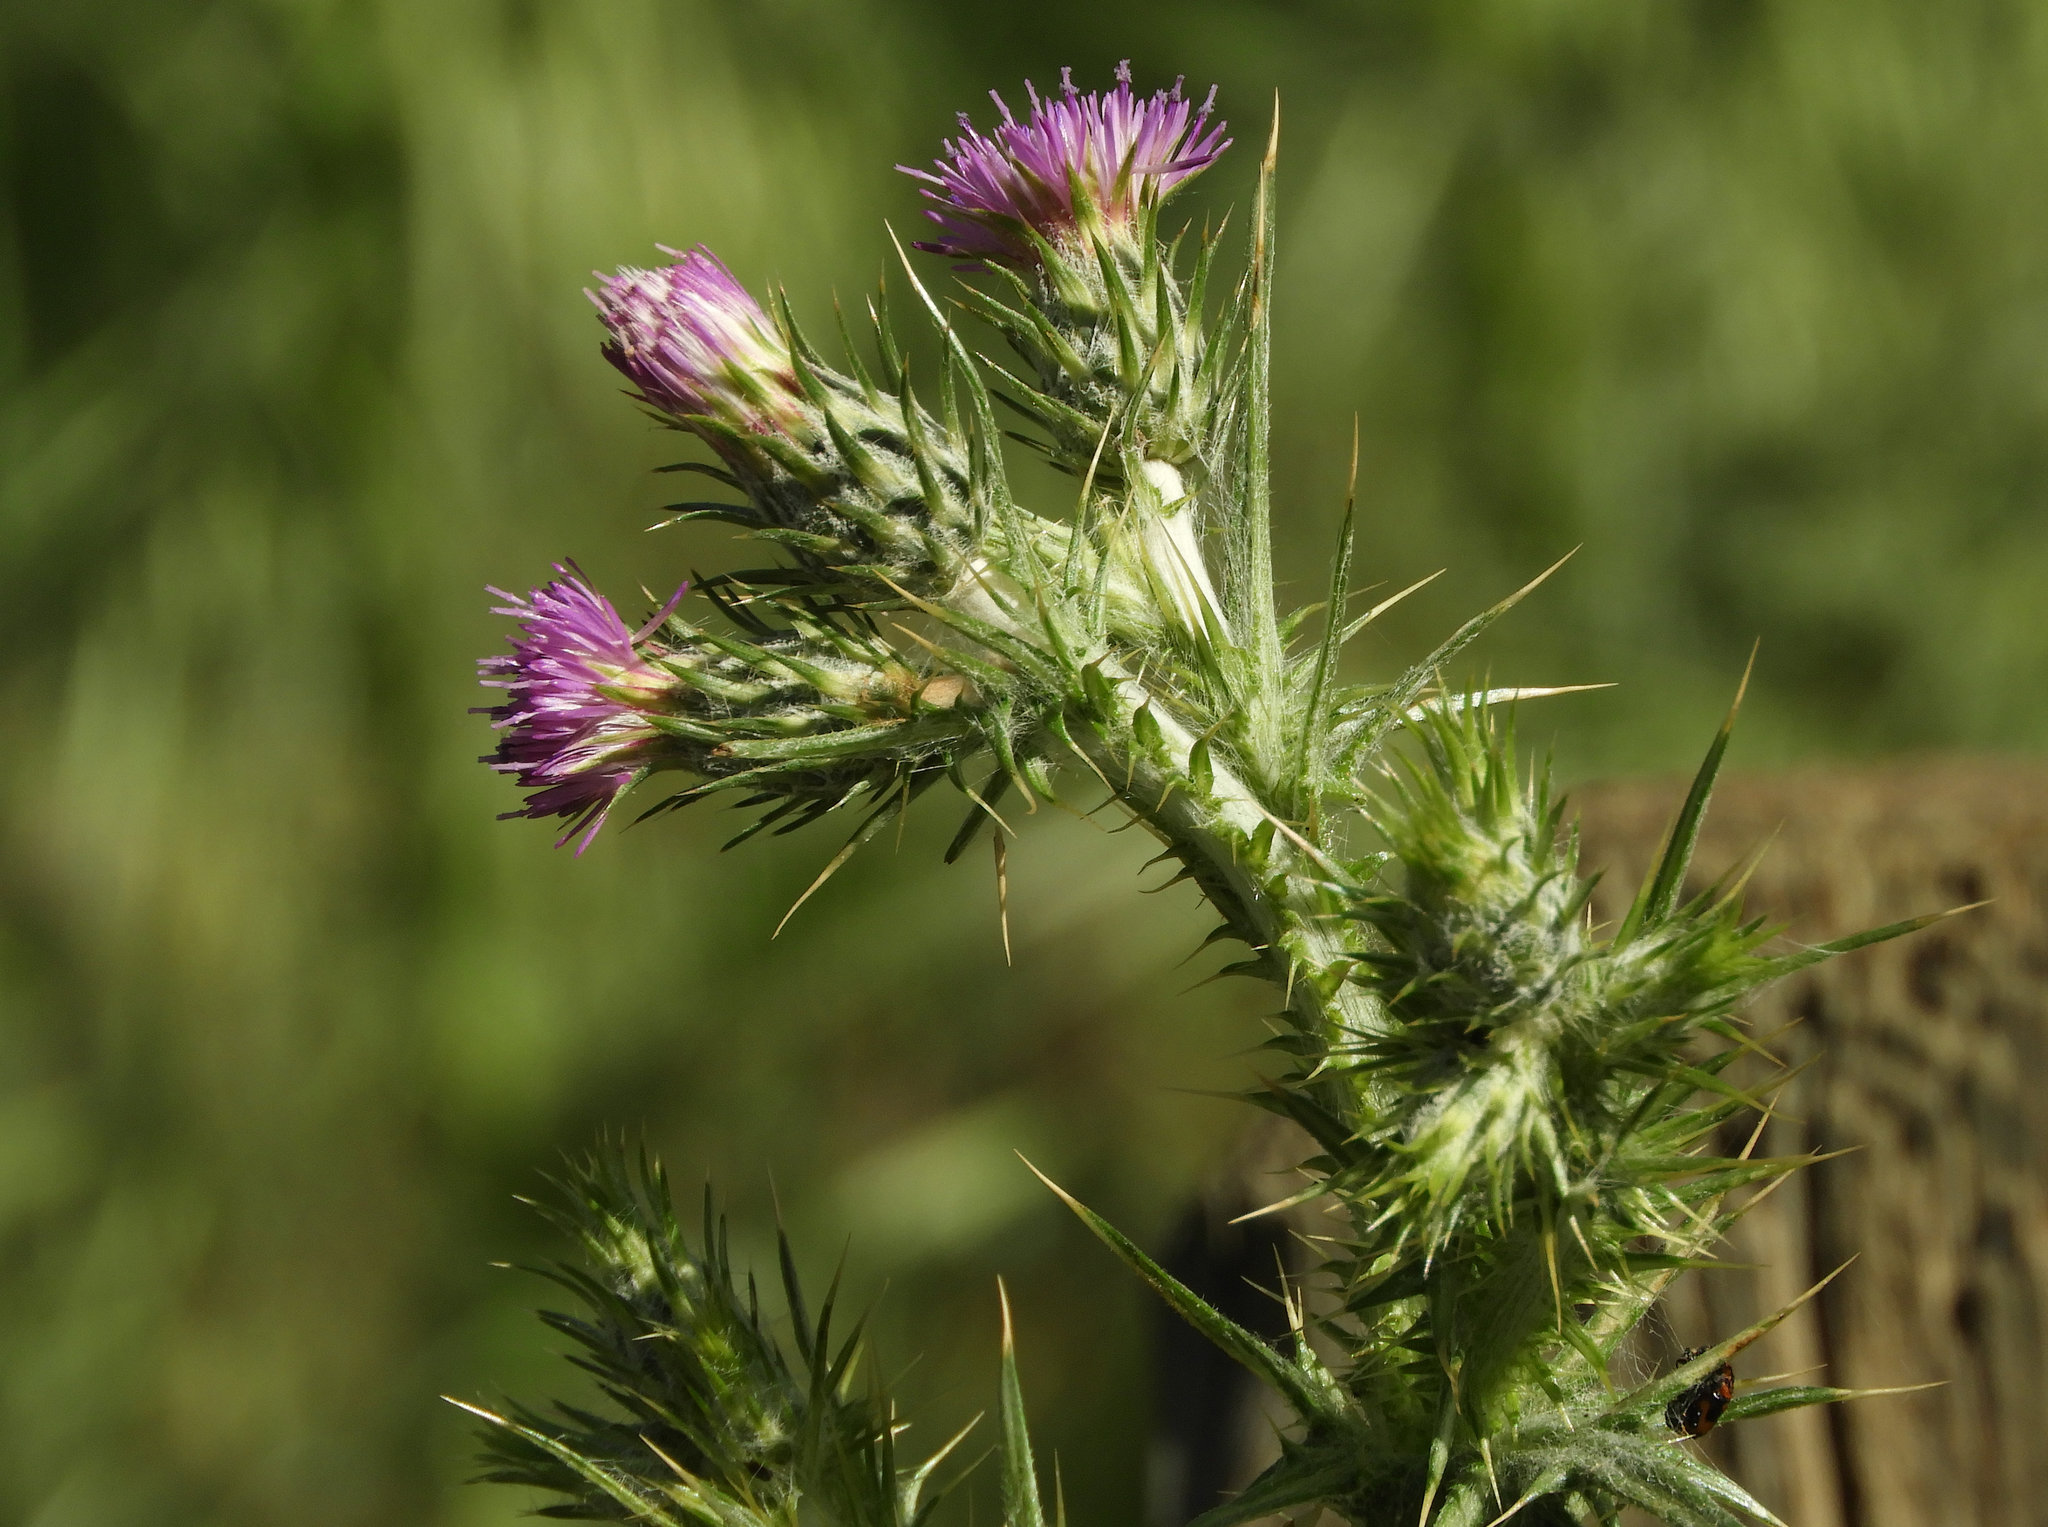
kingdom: Plantae
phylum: Tracheophyta
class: Magnoliopsida
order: Asterales
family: Asteraceae
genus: Carduus
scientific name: Carduus pycnocephalus
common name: Plymouth thistle
